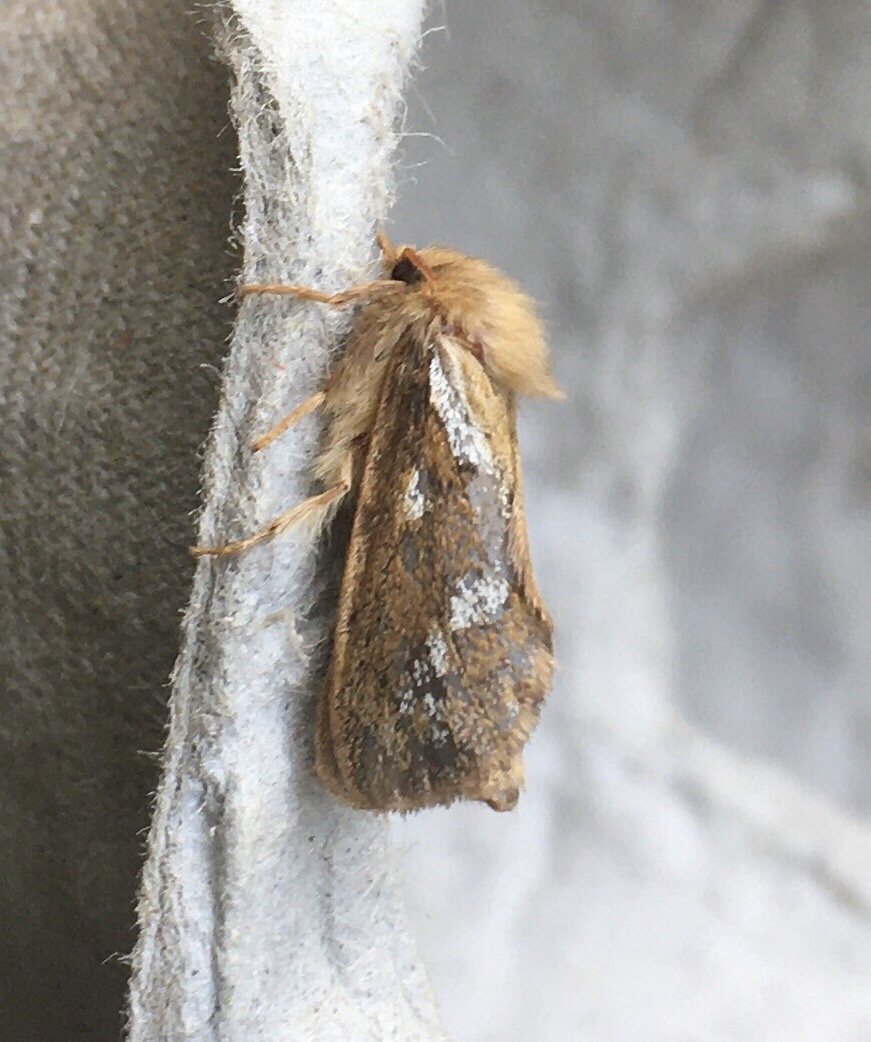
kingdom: Animalia
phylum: Arthropoda
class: Insecta
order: Lepidoptera
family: Hepialidae
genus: Korscheltellus
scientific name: Korscheltellus lupulina
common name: Common swift
